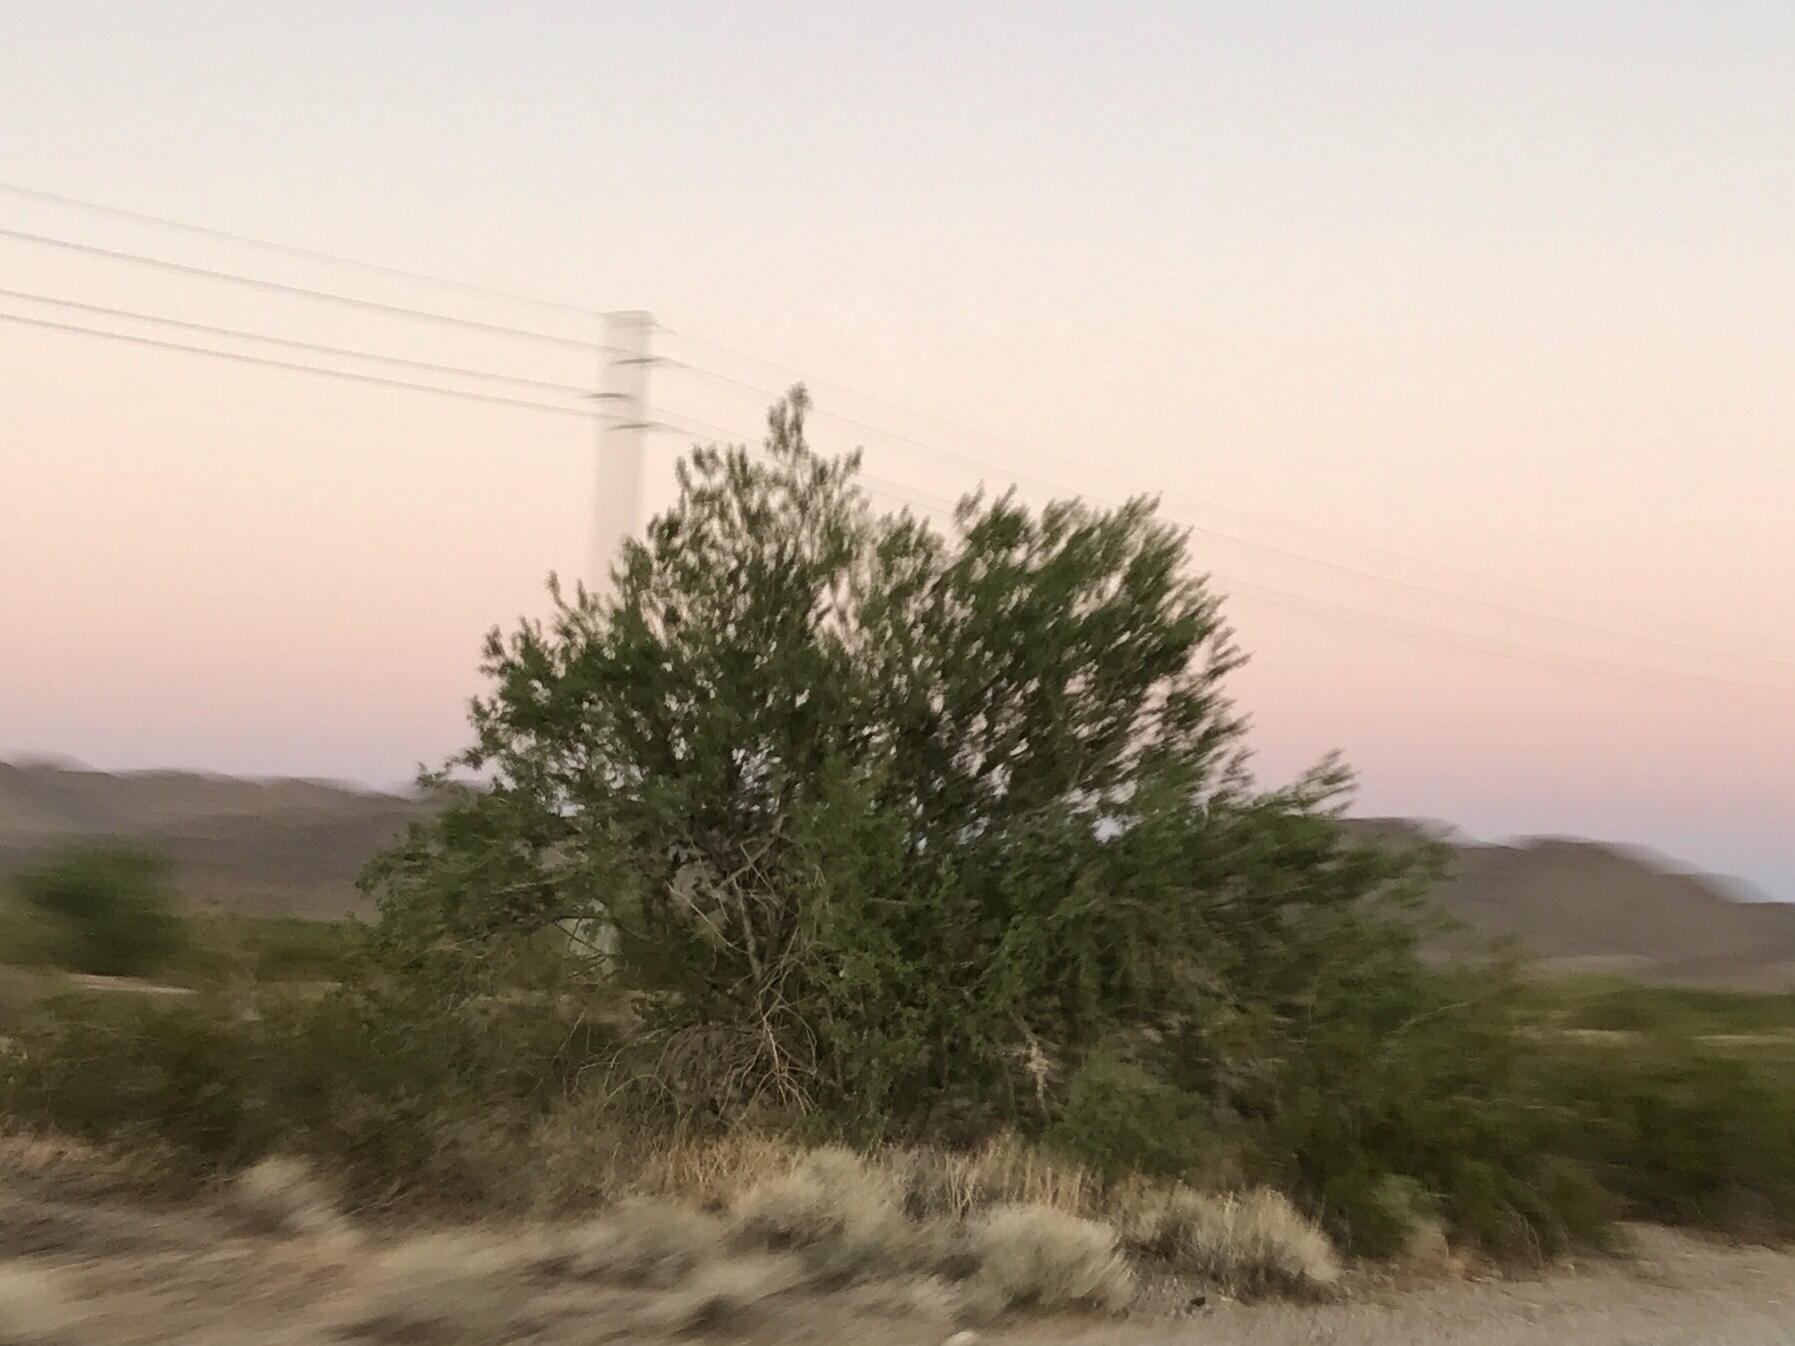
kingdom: Plantae
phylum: Tracheophyta
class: Magnoliopsida
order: Fabales
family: Fabaceae
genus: Olneya
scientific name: Olneya tesota
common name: Desert ironwood
